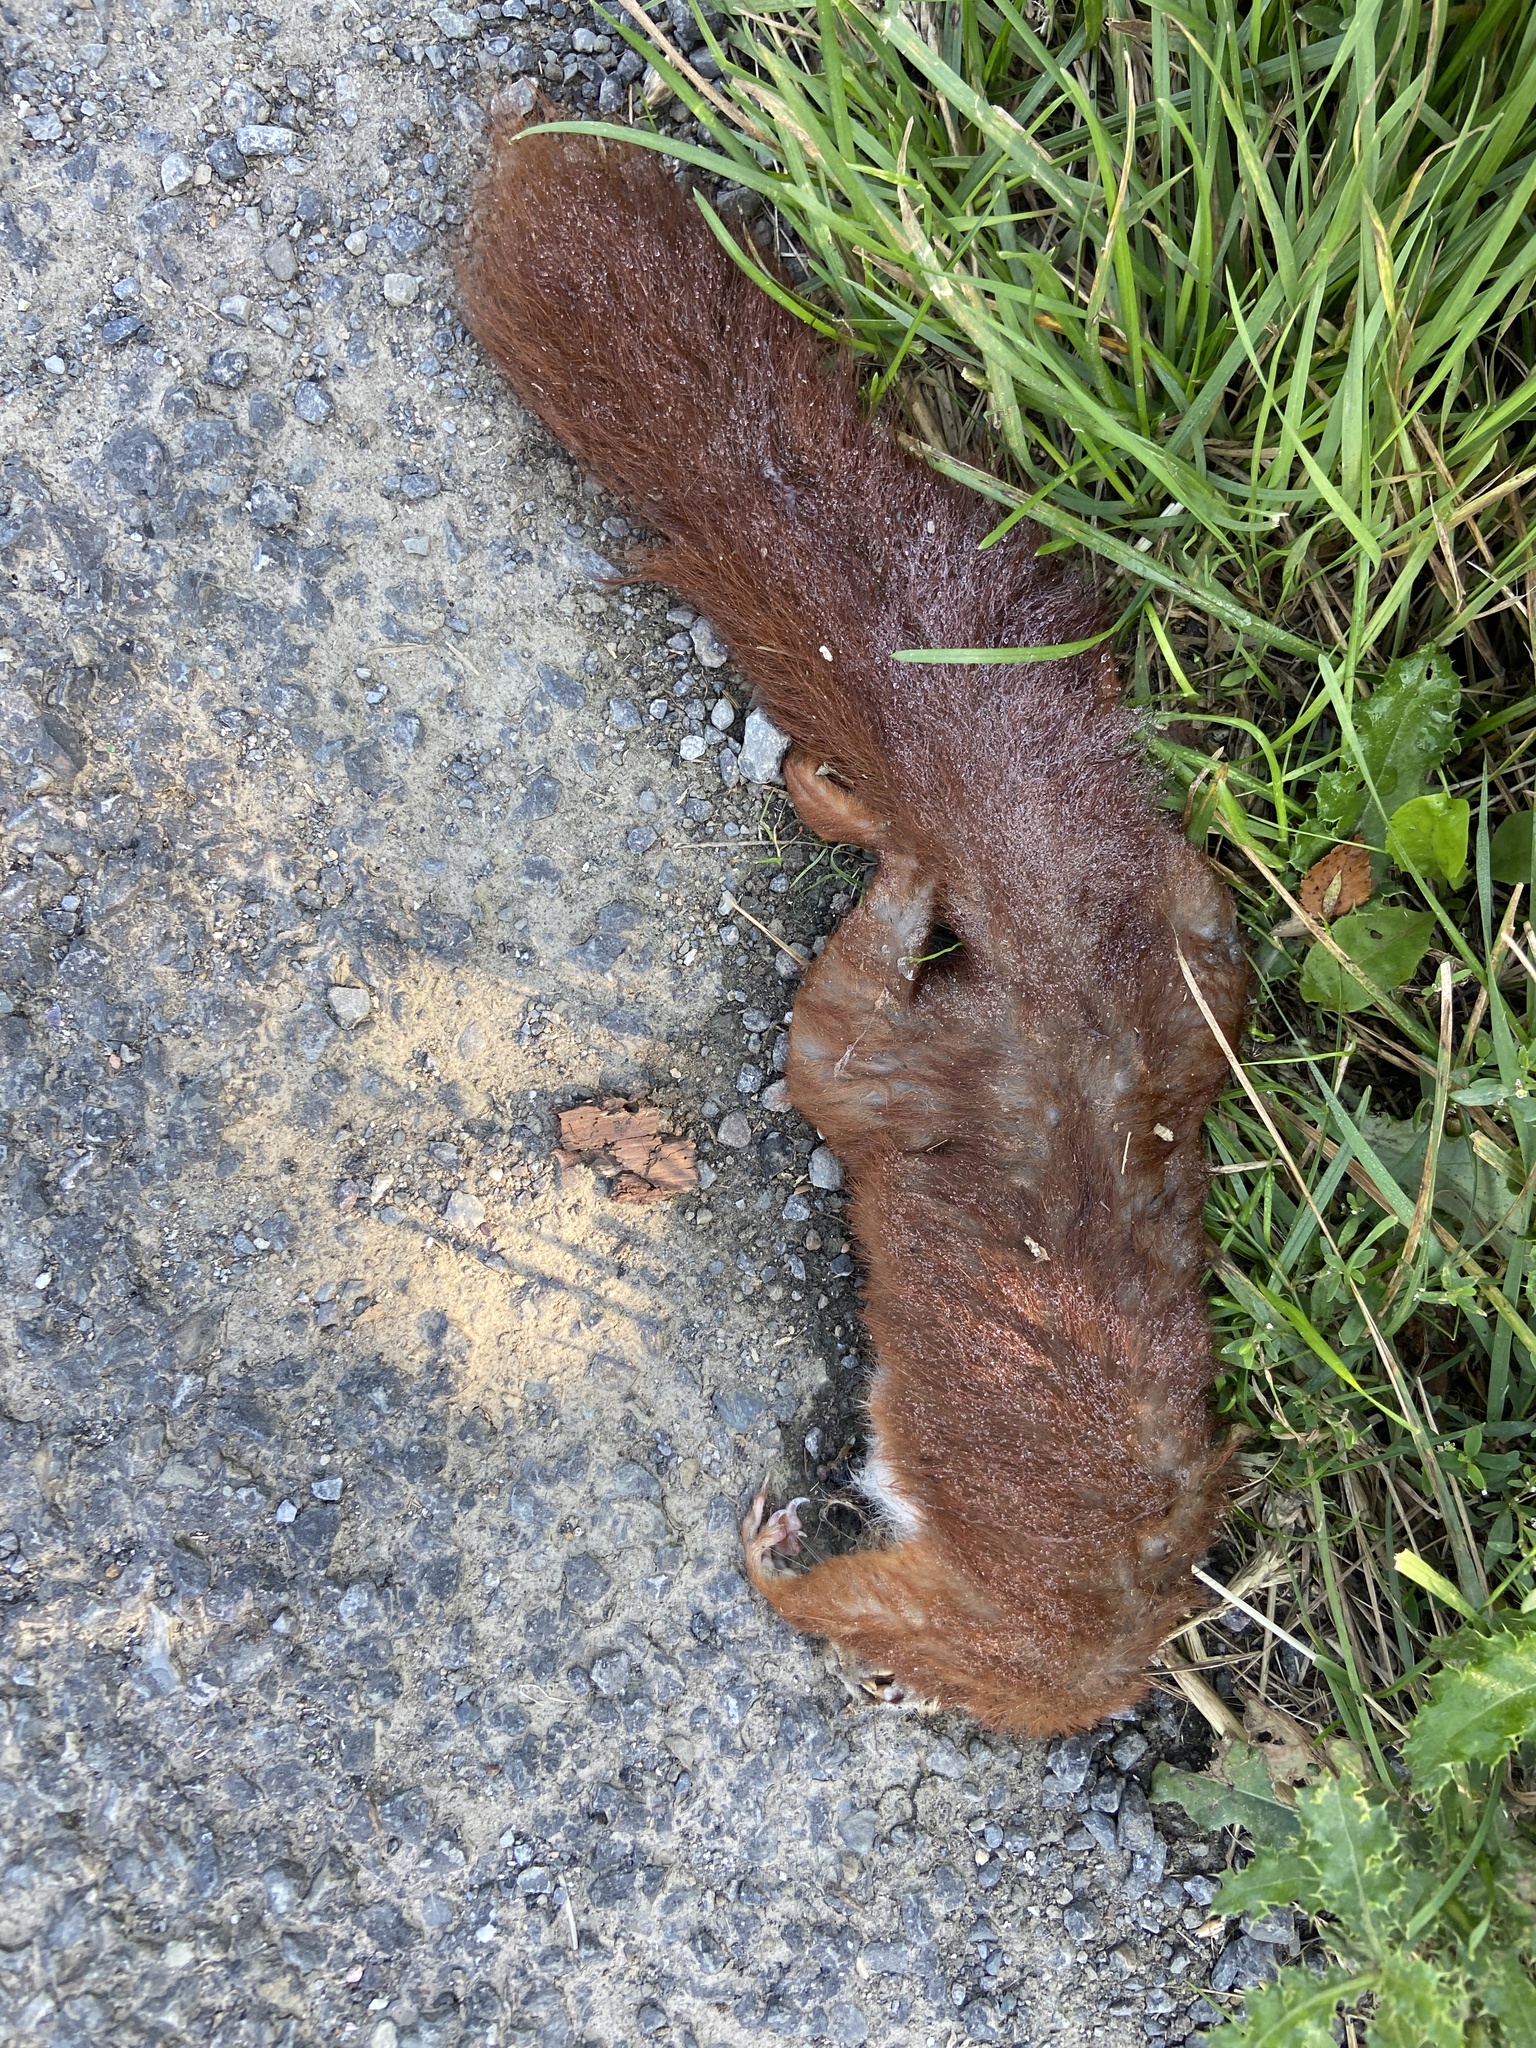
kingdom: Animalia
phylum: Chordata
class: Mammalia
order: Rodentia
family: Sciuridae
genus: Sciurus
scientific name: Sciurus vulgaris
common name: Eurasian red squirrel
